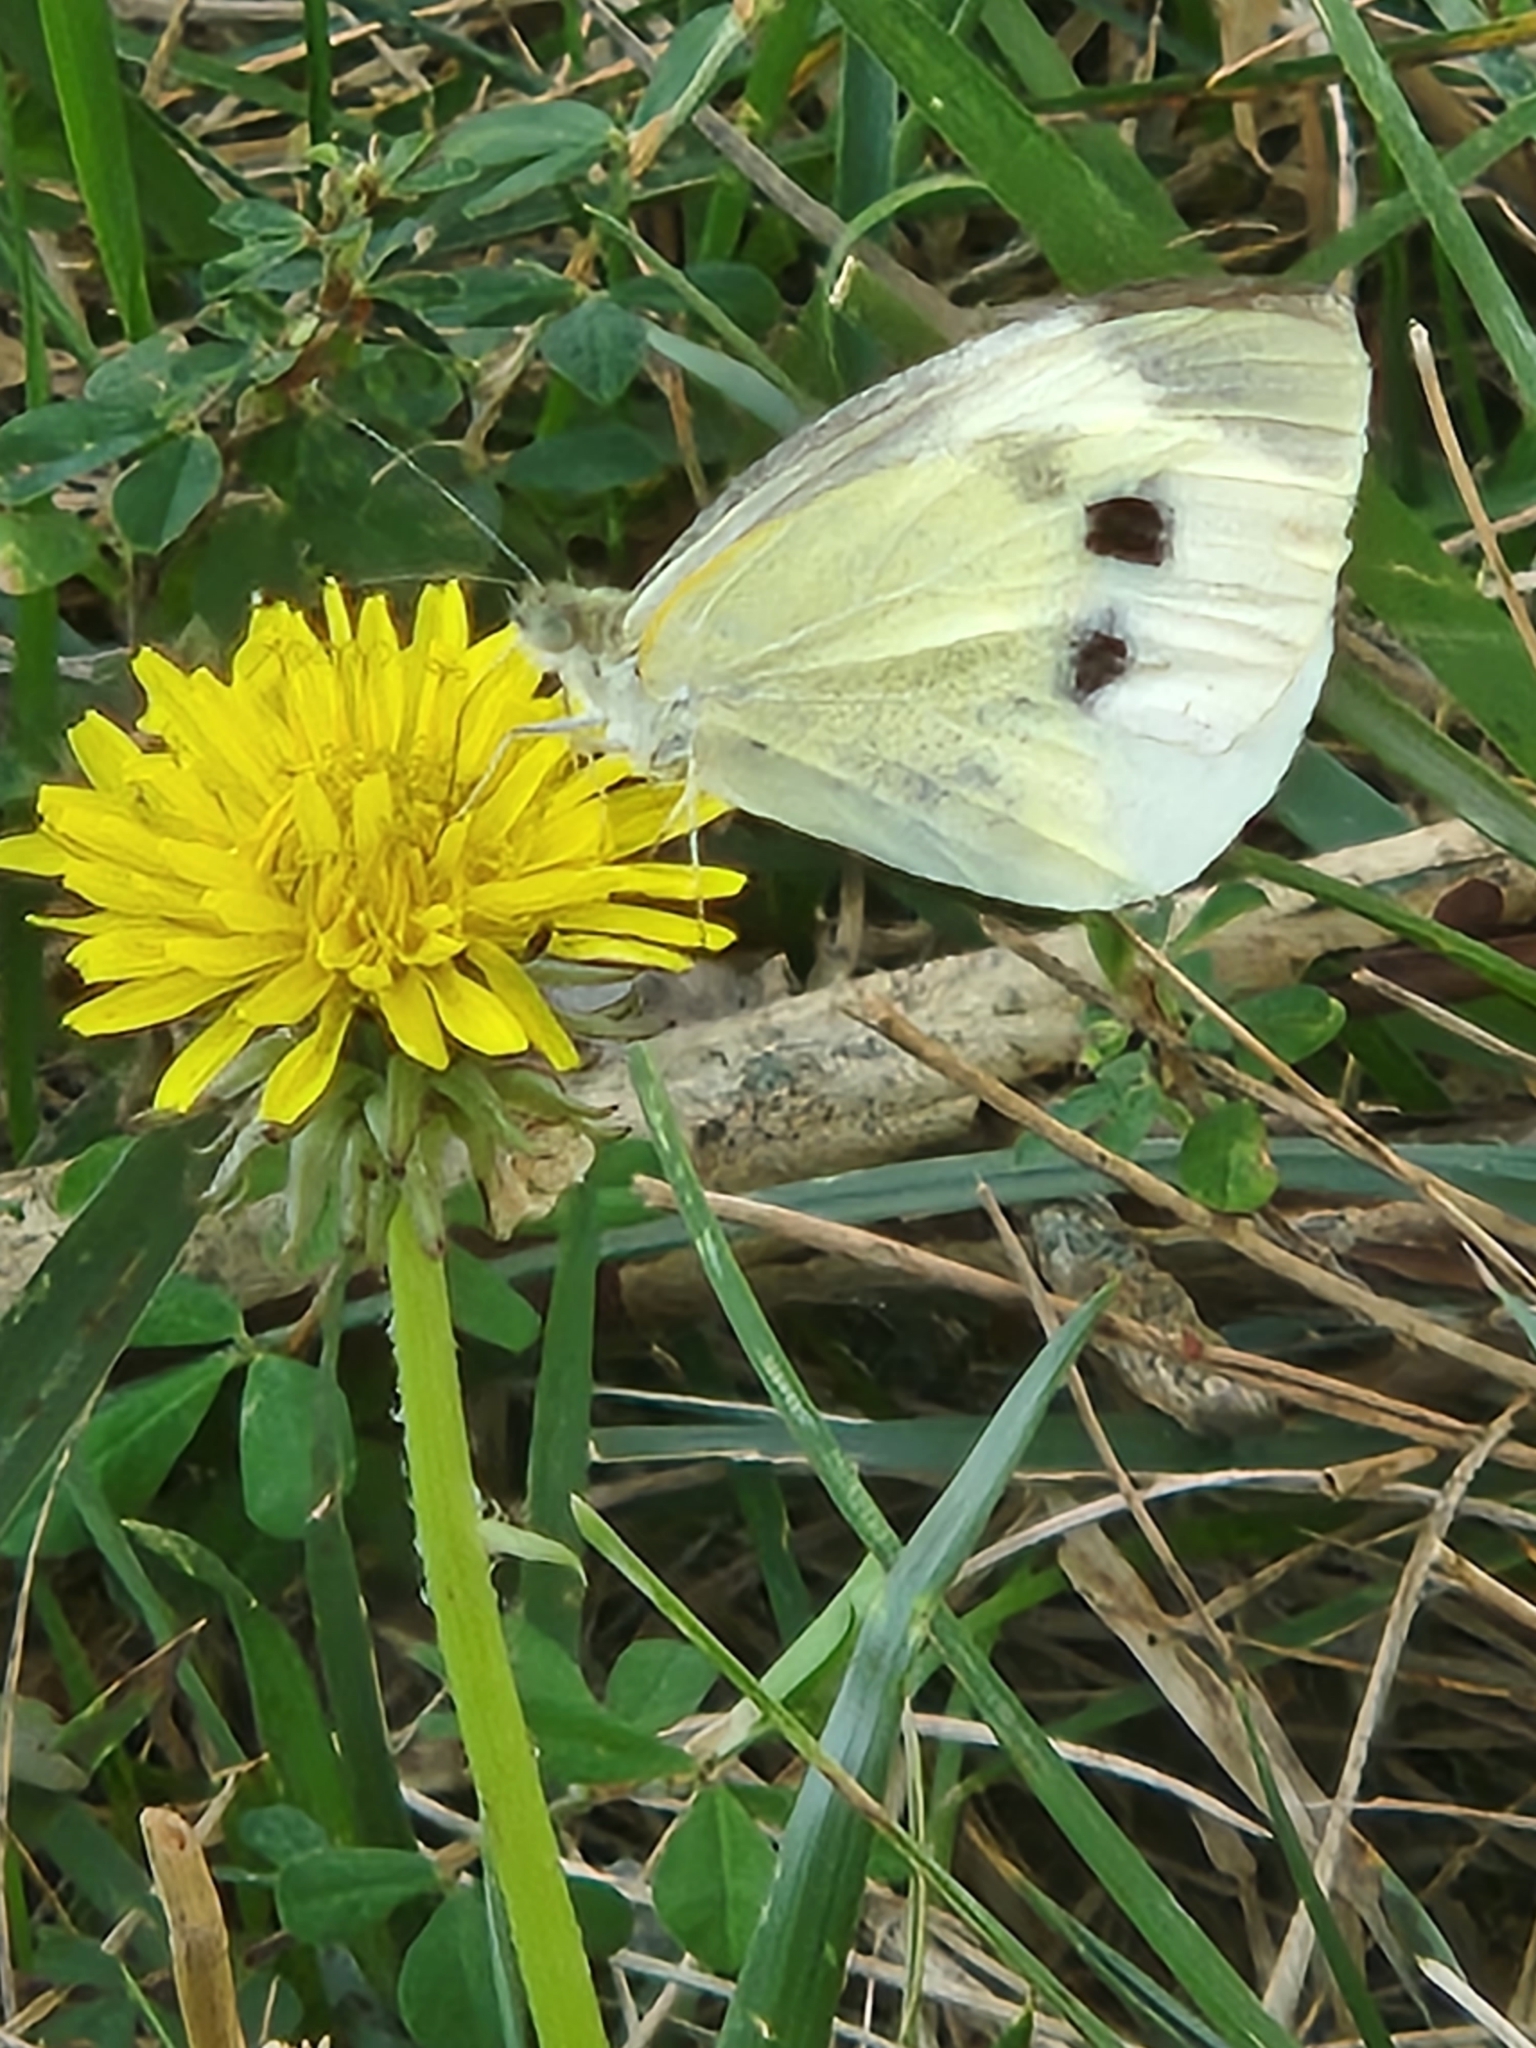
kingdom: Animalia
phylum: Arthropoda
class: Insecta
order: Lepidoptera
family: Pieridae
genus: Pieris
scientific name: Pieris rapae
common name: Small white
